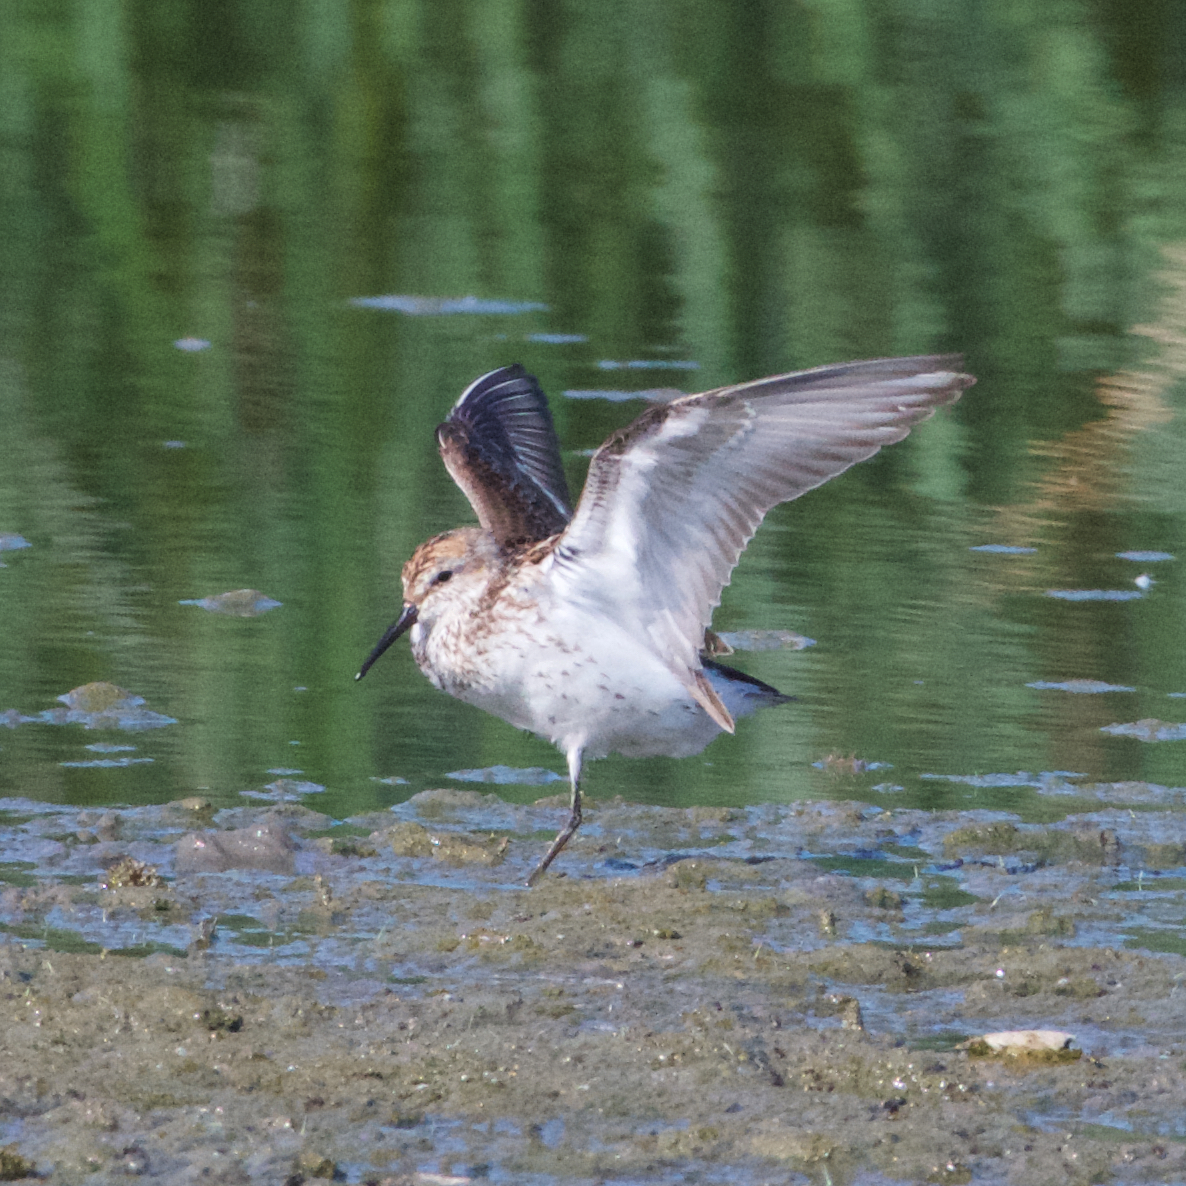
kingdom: Animalia
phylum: Chordata
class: Aves
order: Charadriiformes
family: Scolopacidae
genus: Calidris
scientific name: Calidris mauri
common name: Western sandpiper
